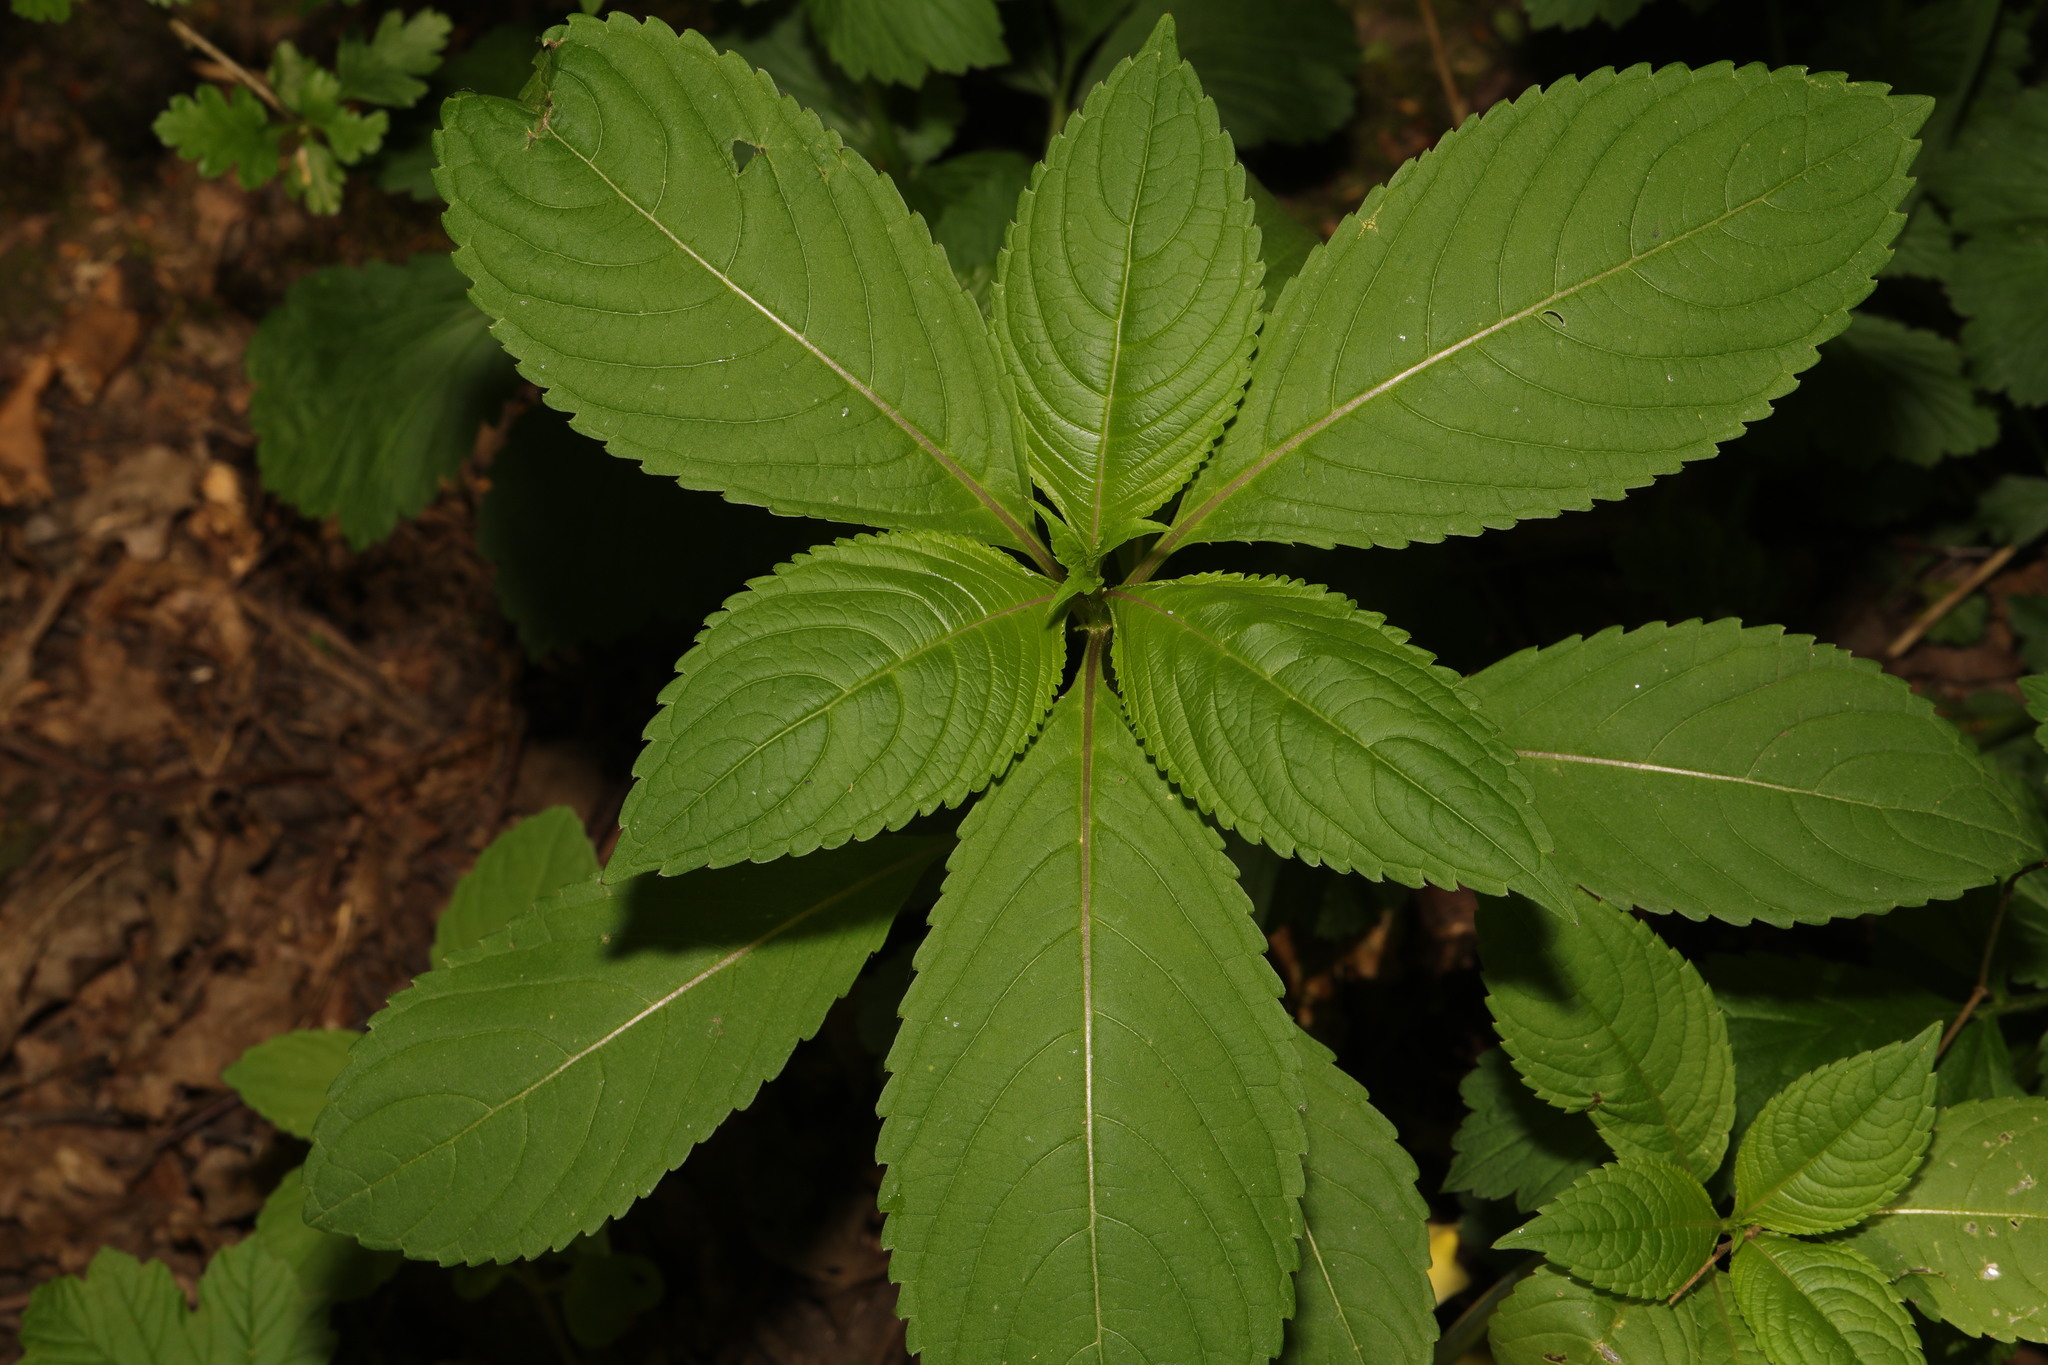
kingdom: Plantae
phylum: Tracheophyta
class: Magnoliopsida
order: Ericales
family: Balsaminaceae
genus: Impatiens
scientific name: Impatiens glandulifera
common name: Himalayan balsam
